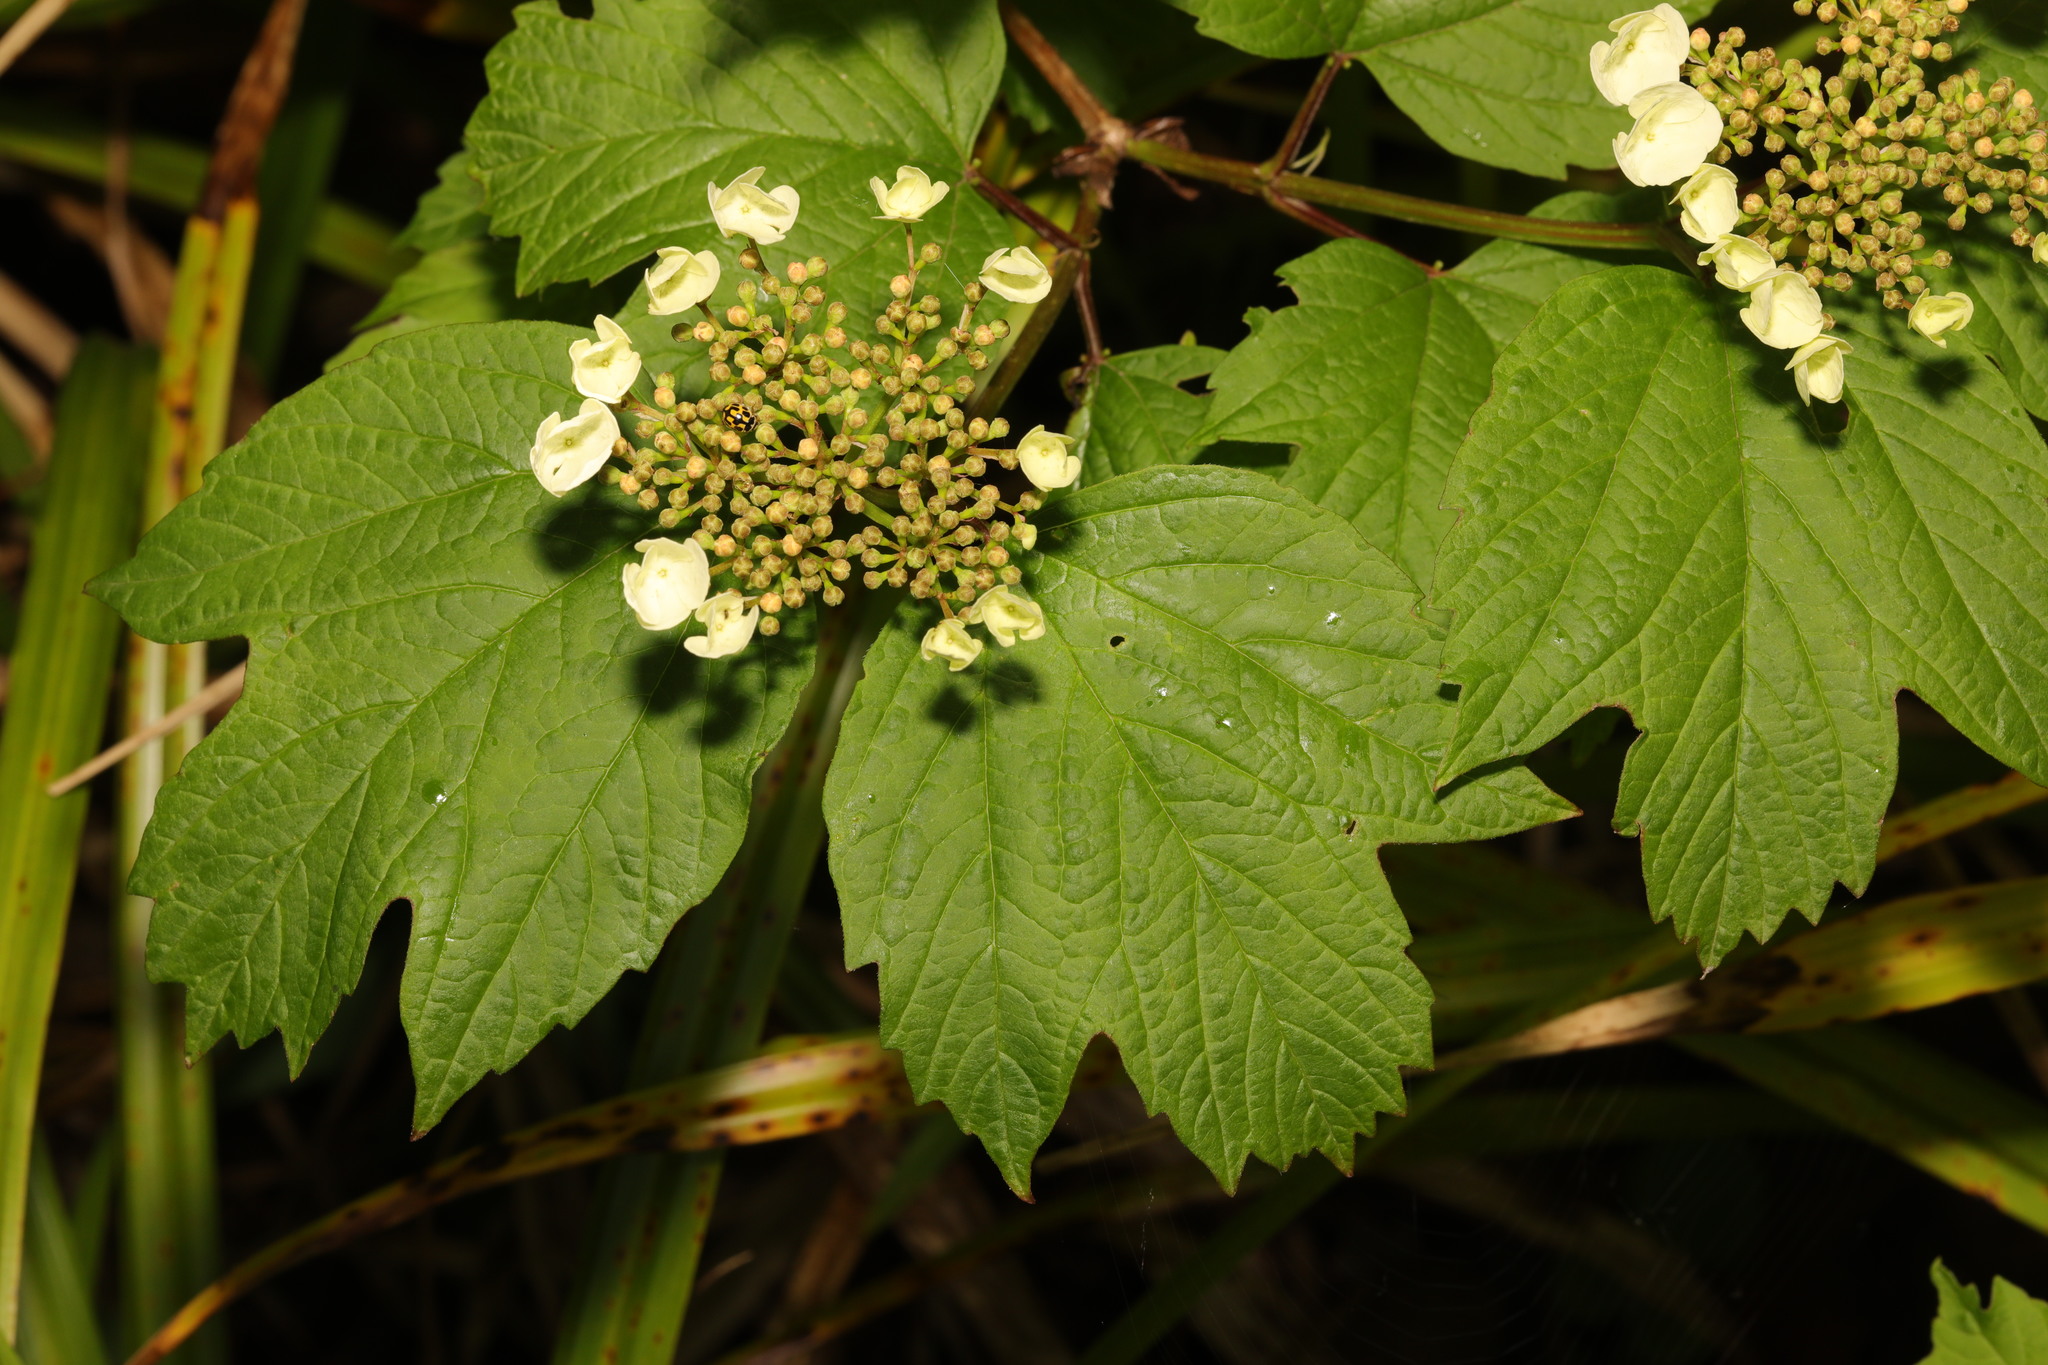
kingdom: Plantae
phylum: Tracheophyta
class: Magnoliopsida
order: Dipsacales
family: Viburnaceae
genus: Viburnum
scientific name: Viburnum opulus
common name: Guelder-rose
